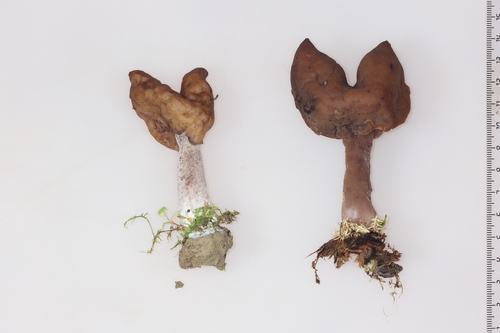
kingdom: Fungi
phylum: Ascomycota
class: Pezizomycetes
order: Pezizales
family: Discinaceae
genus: Gyromitra
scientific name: Gyromitra infula
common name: Pouched false morel
